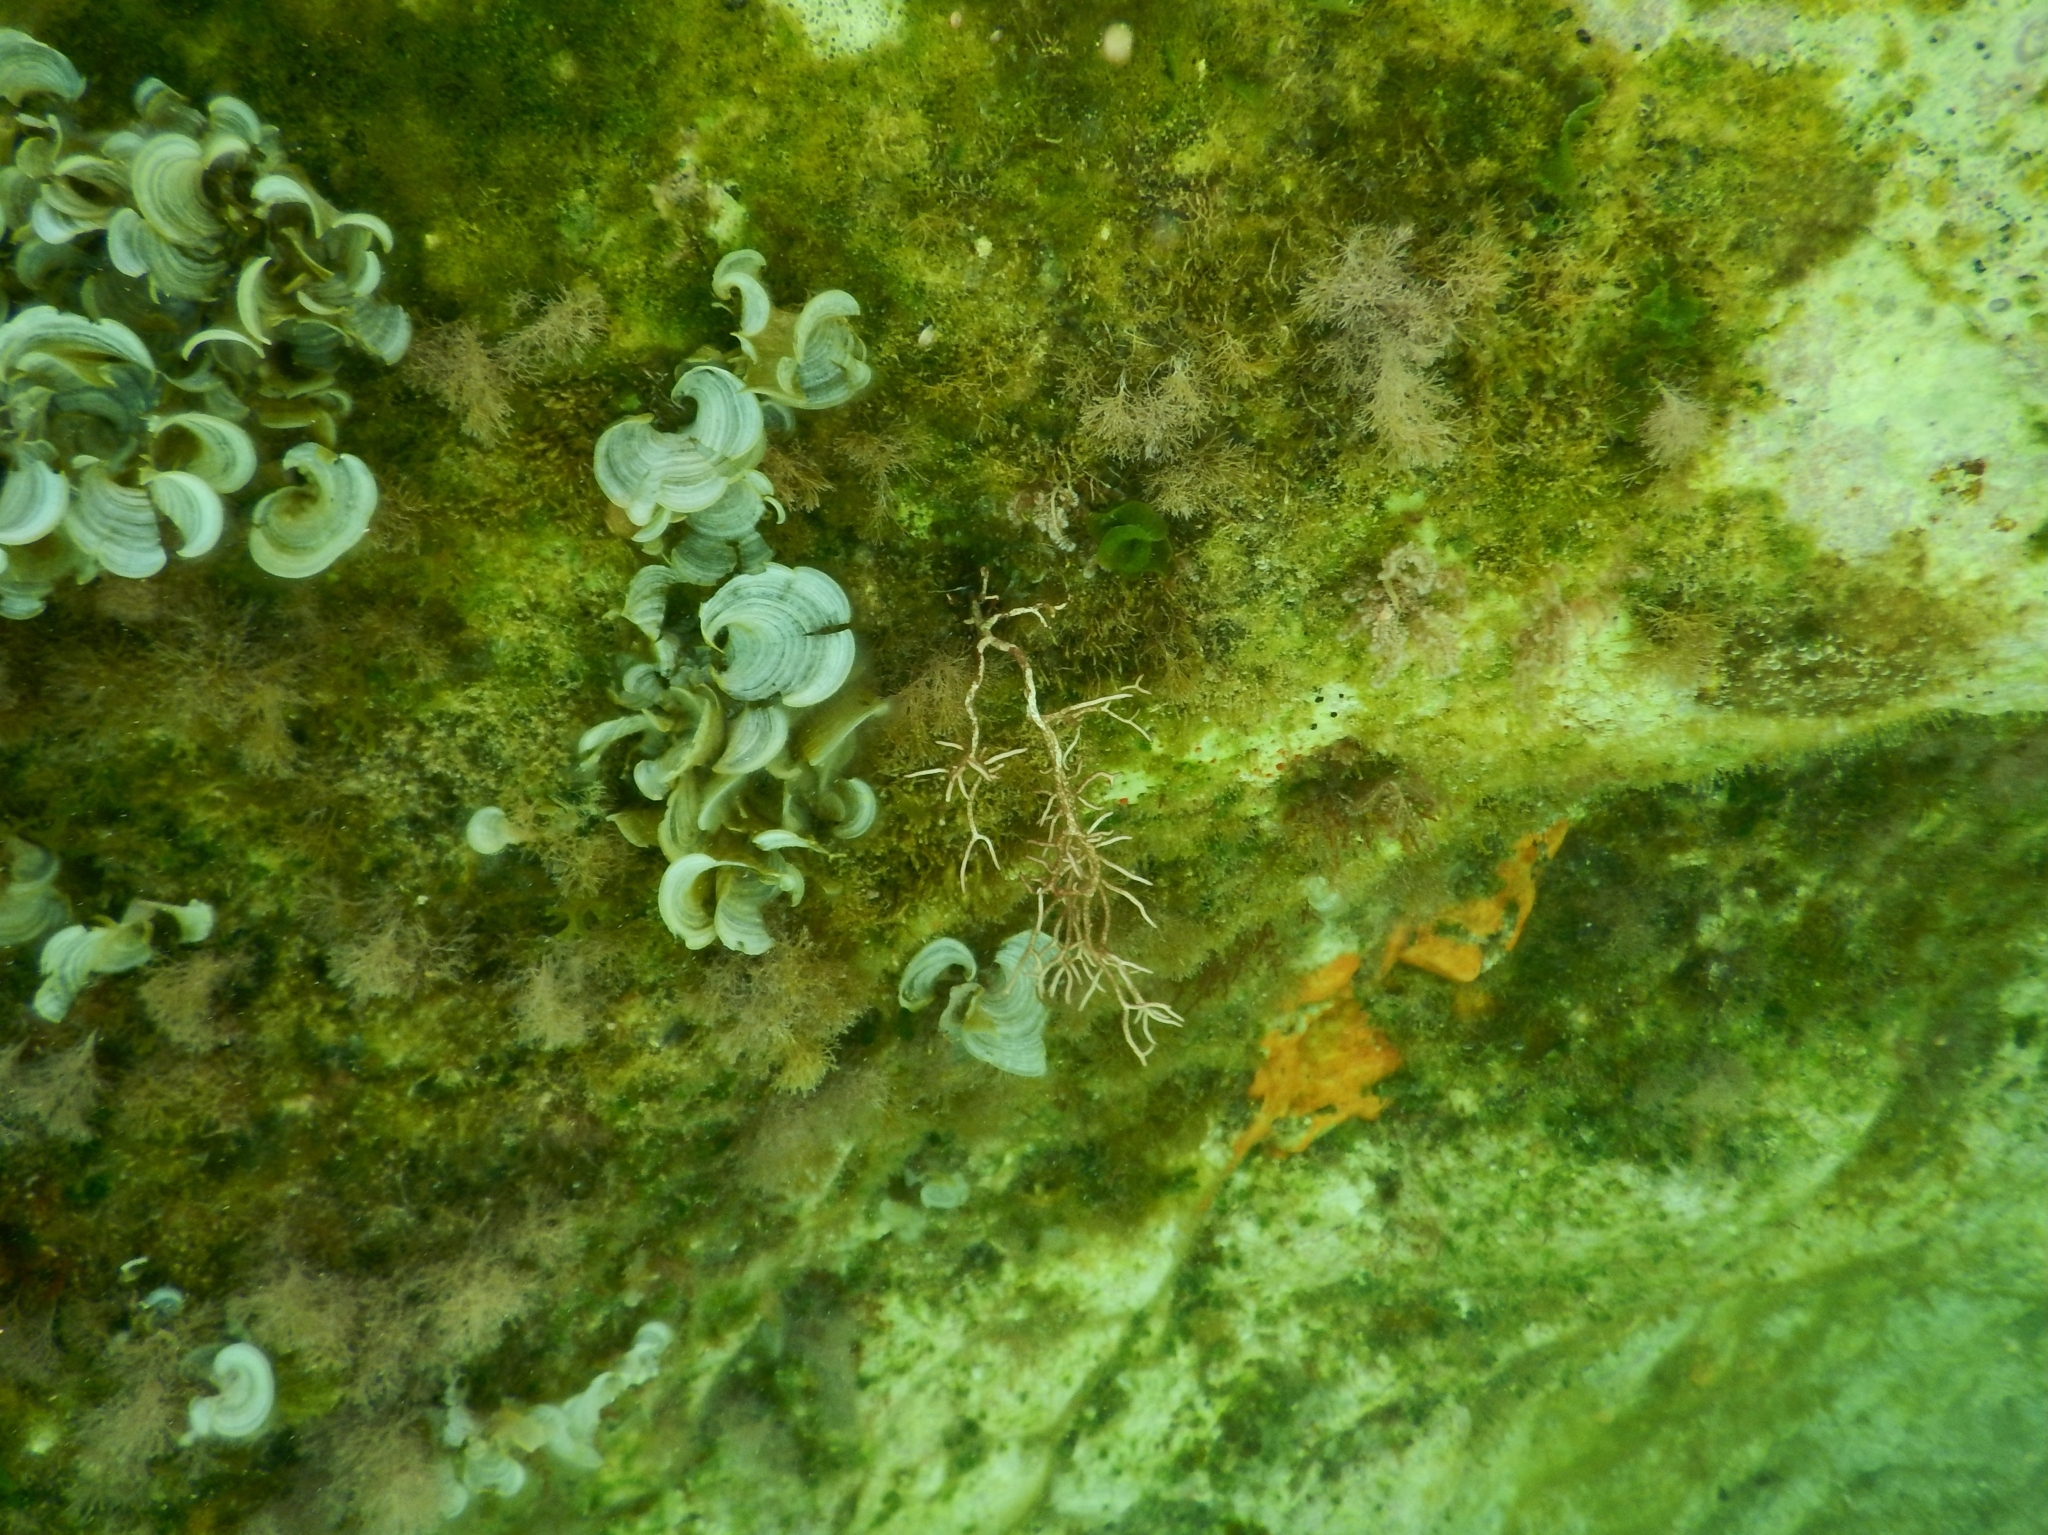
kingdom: Chromista
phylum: Ochrophyta
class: Phaeophyceae
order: Dictyotales
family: Dictyotaceae
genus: Padina
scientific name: Padina
